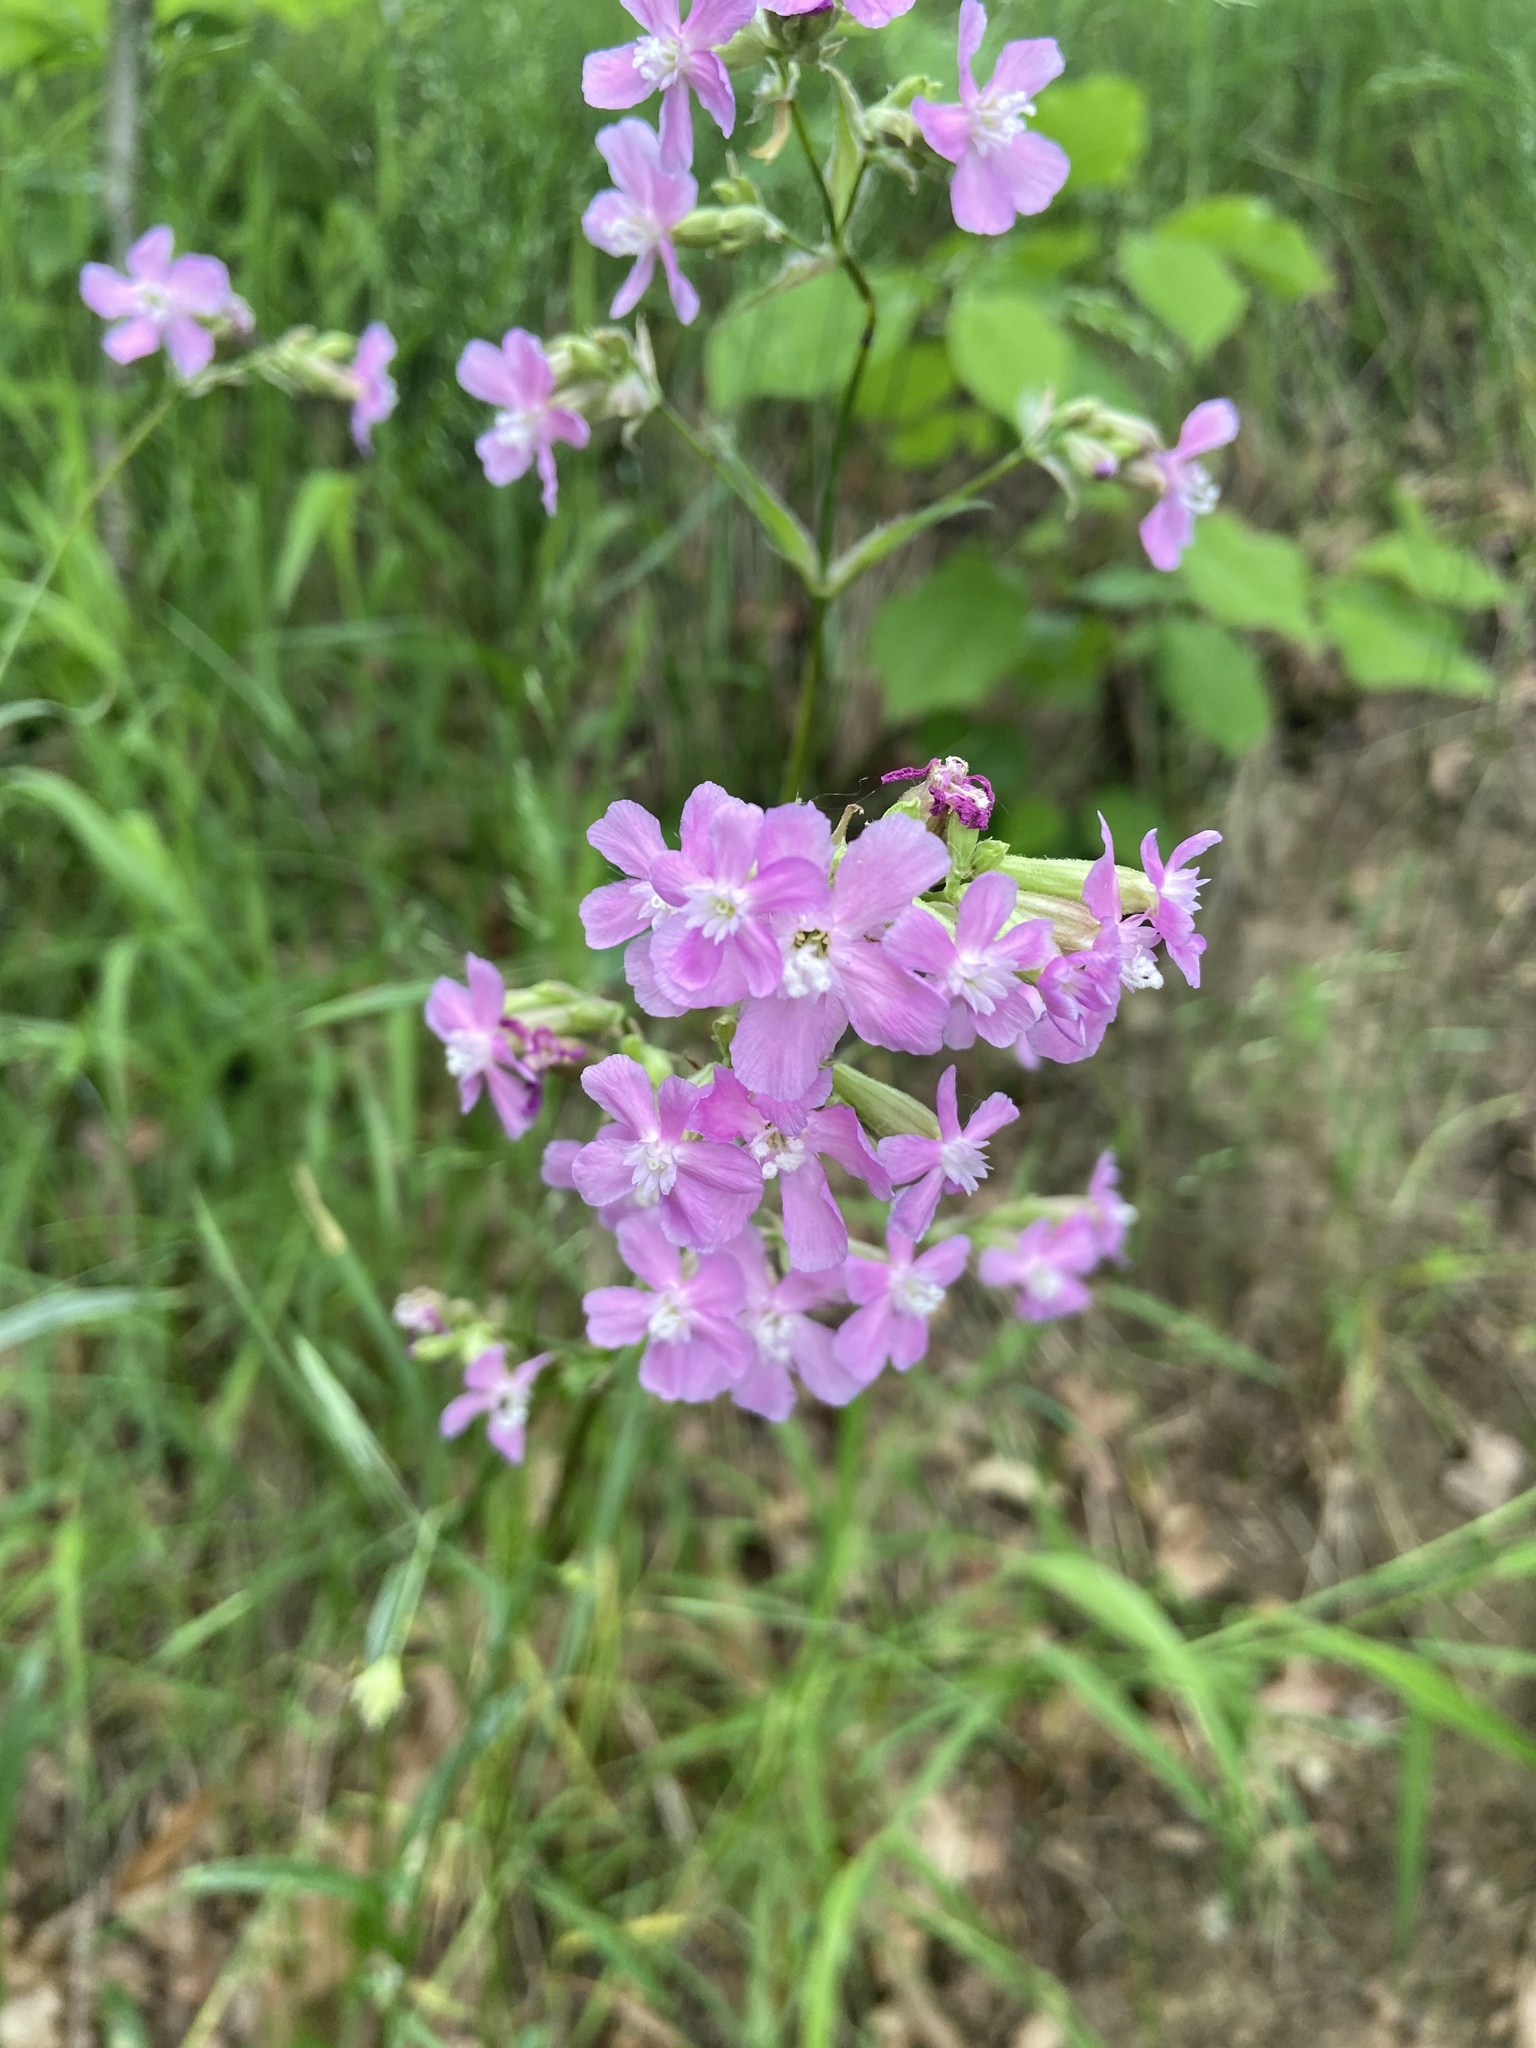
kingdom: Plantae
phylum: Tracheophyta
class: Magnoliopsida
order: Caryophyllales
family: Caryophyllaceae
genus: Viscaria
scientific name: Viscaria vulgaris
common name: Clammy campion
